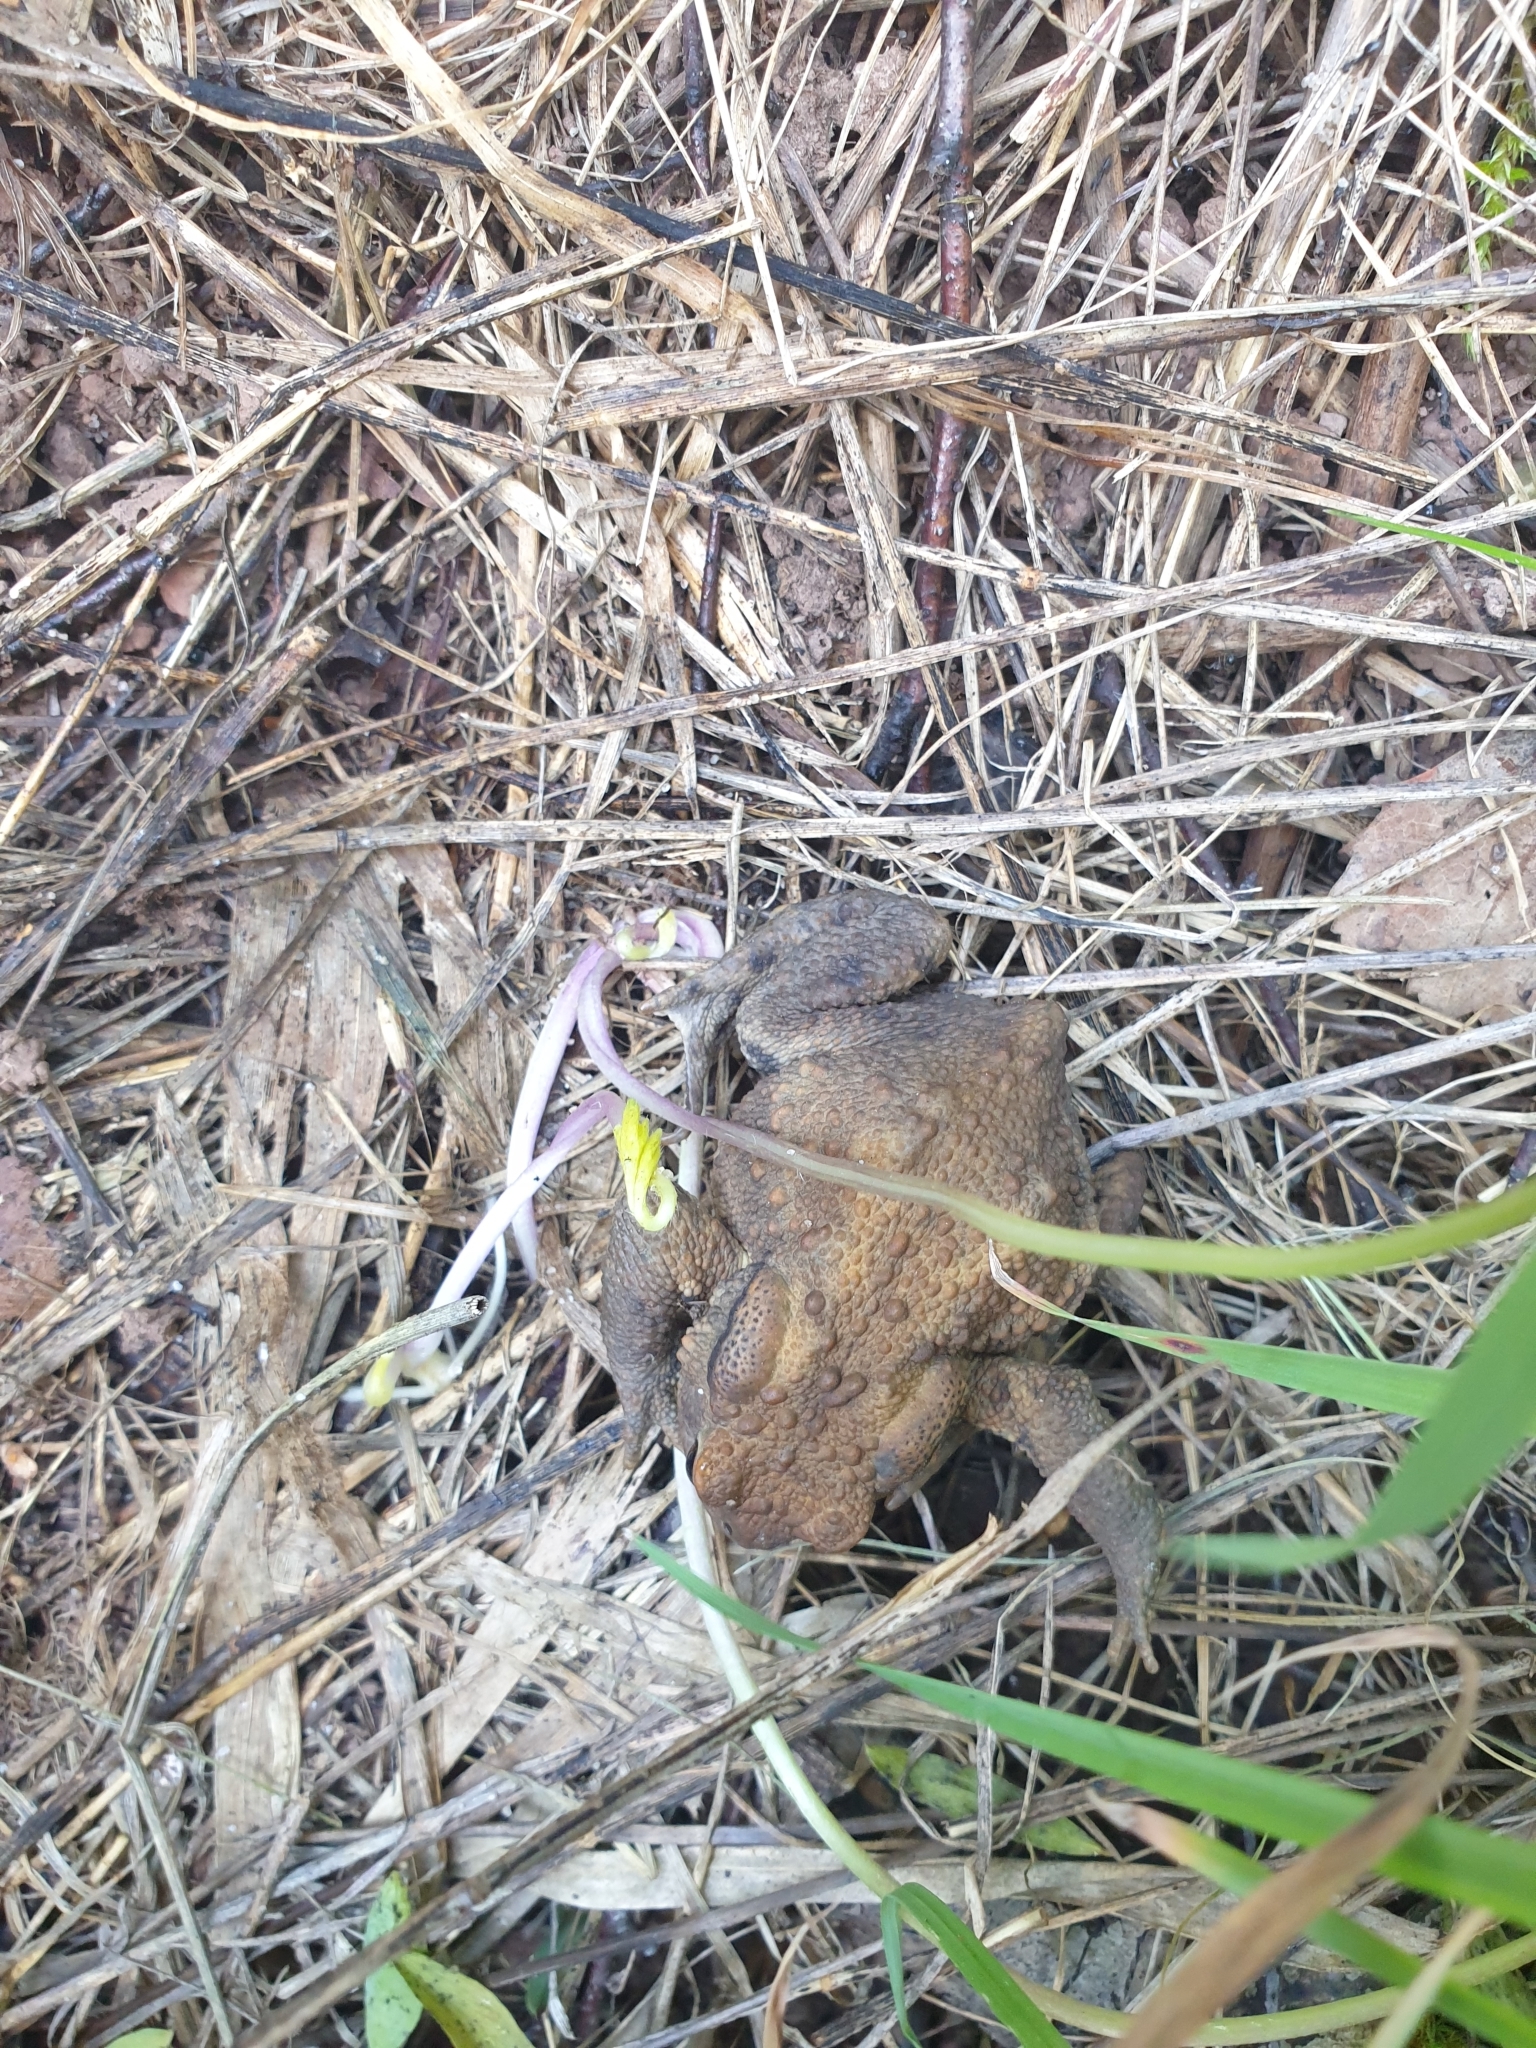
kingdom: Animalia
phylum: Chordata
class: Amphibia
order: Anura
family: Bufonidae
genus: Bufo
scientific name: Bufo bufo
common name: Common toad
